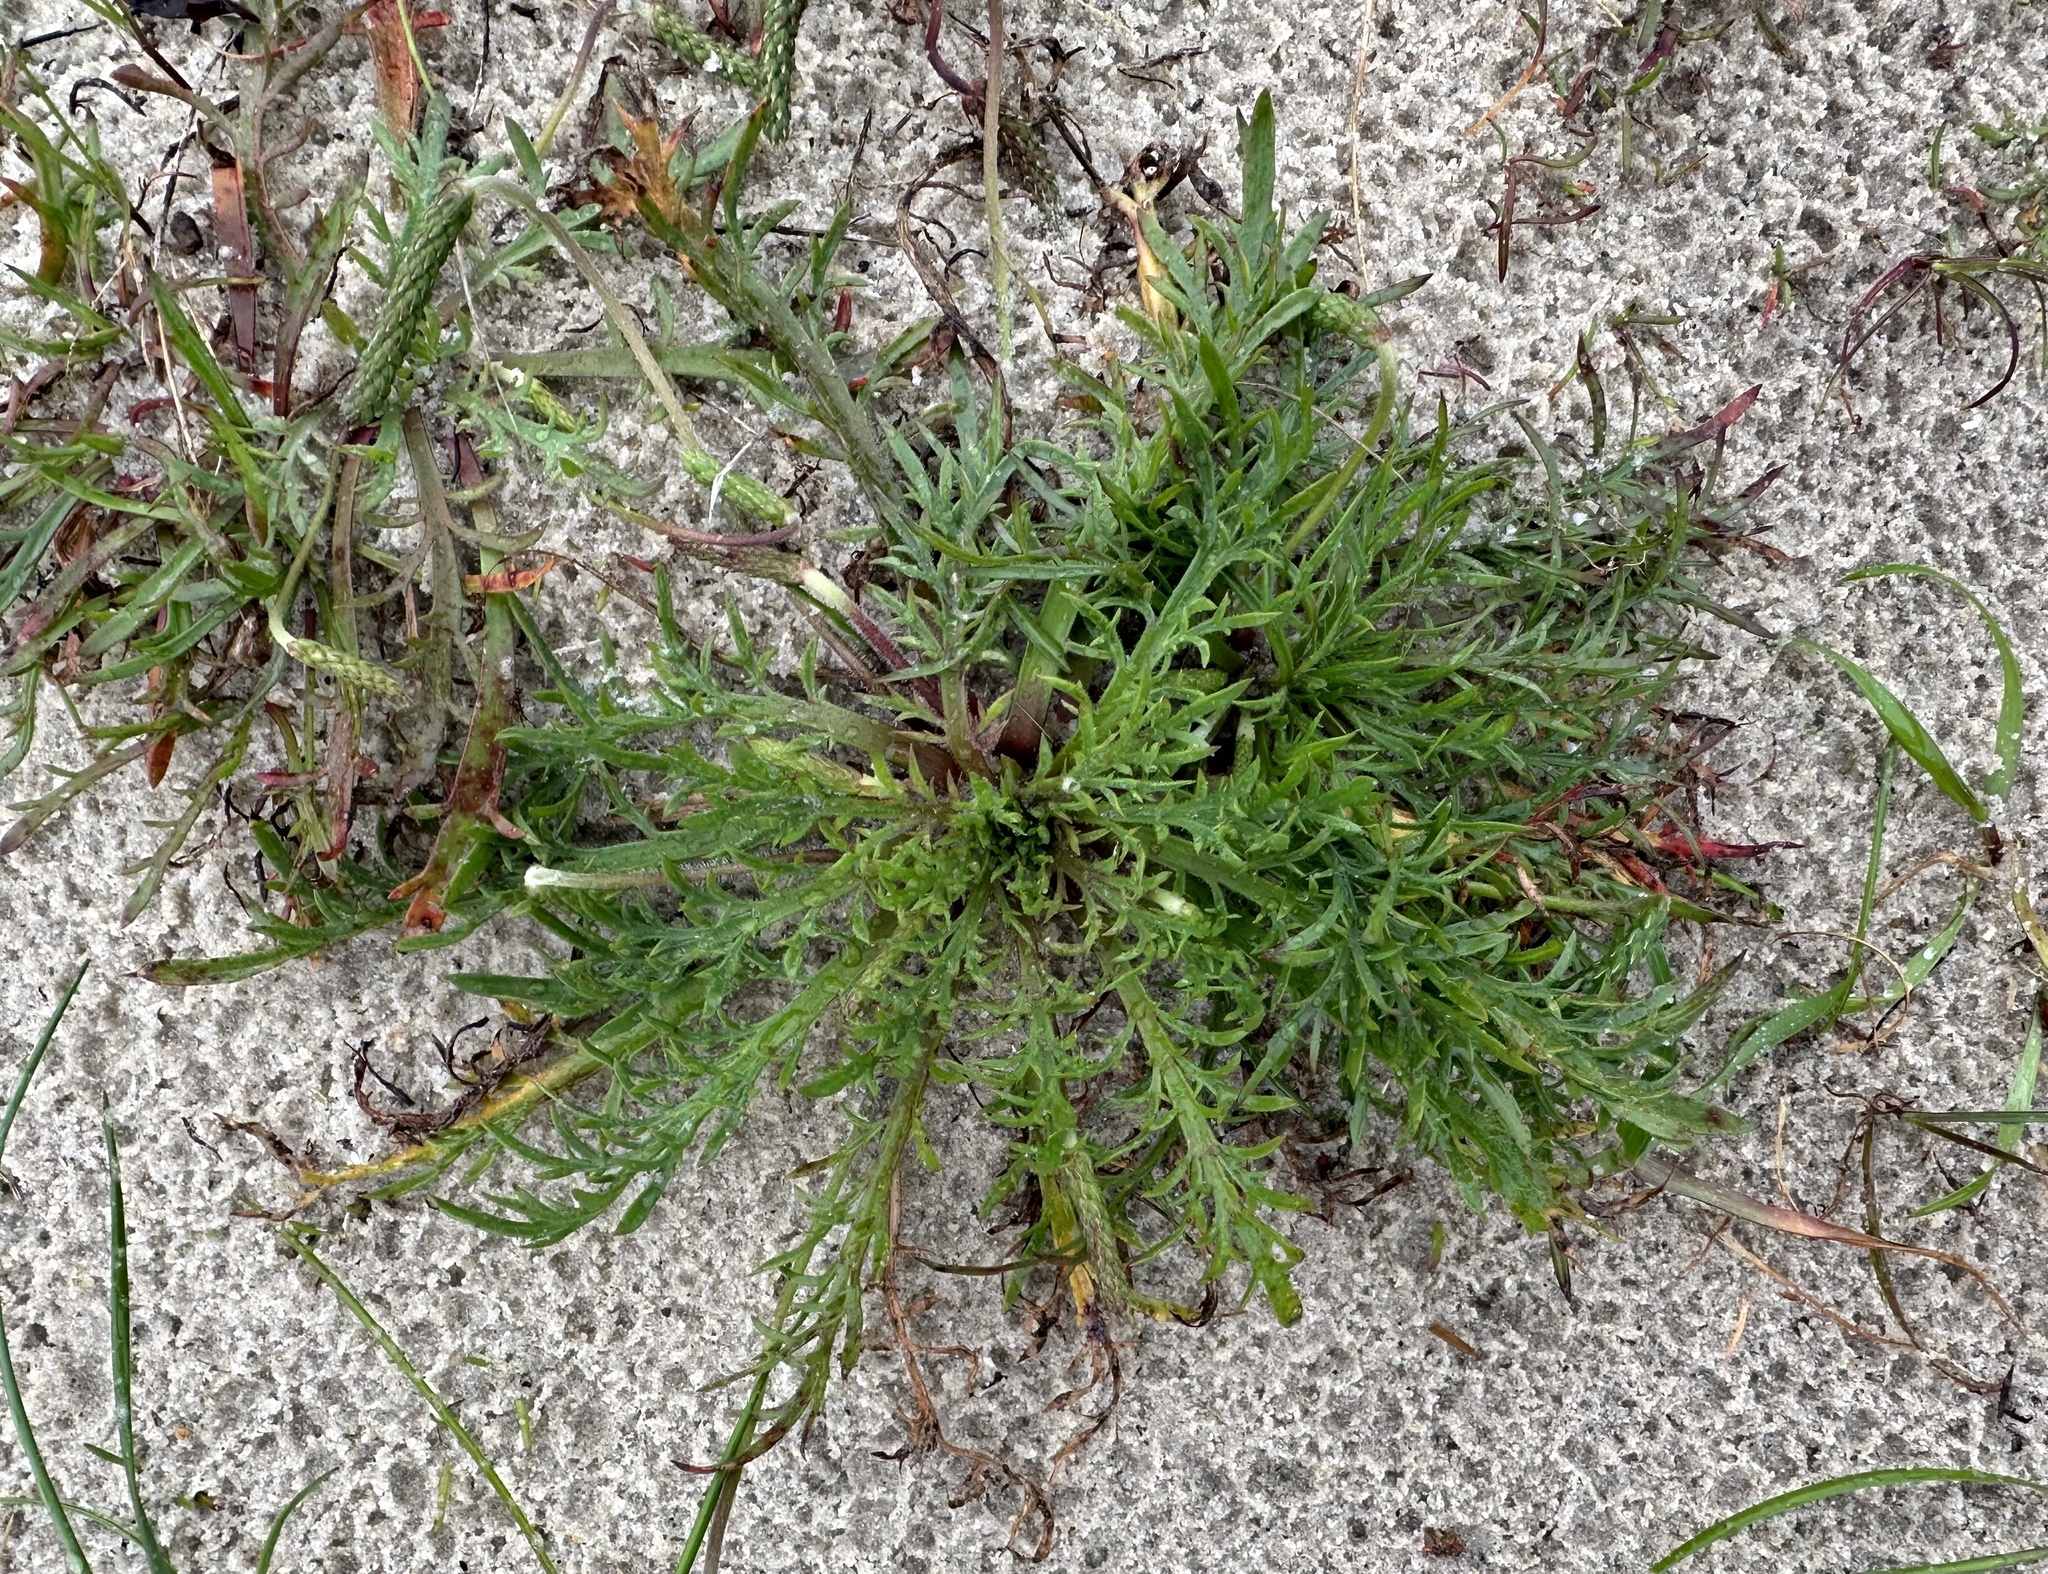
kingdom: Plantae
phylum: Tracheophyta
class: Magnoliopsida
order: Lamiales
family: Plantaginaceae
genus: Plantago
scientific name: Plantago coronopus
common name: Buck's-horn plantain
